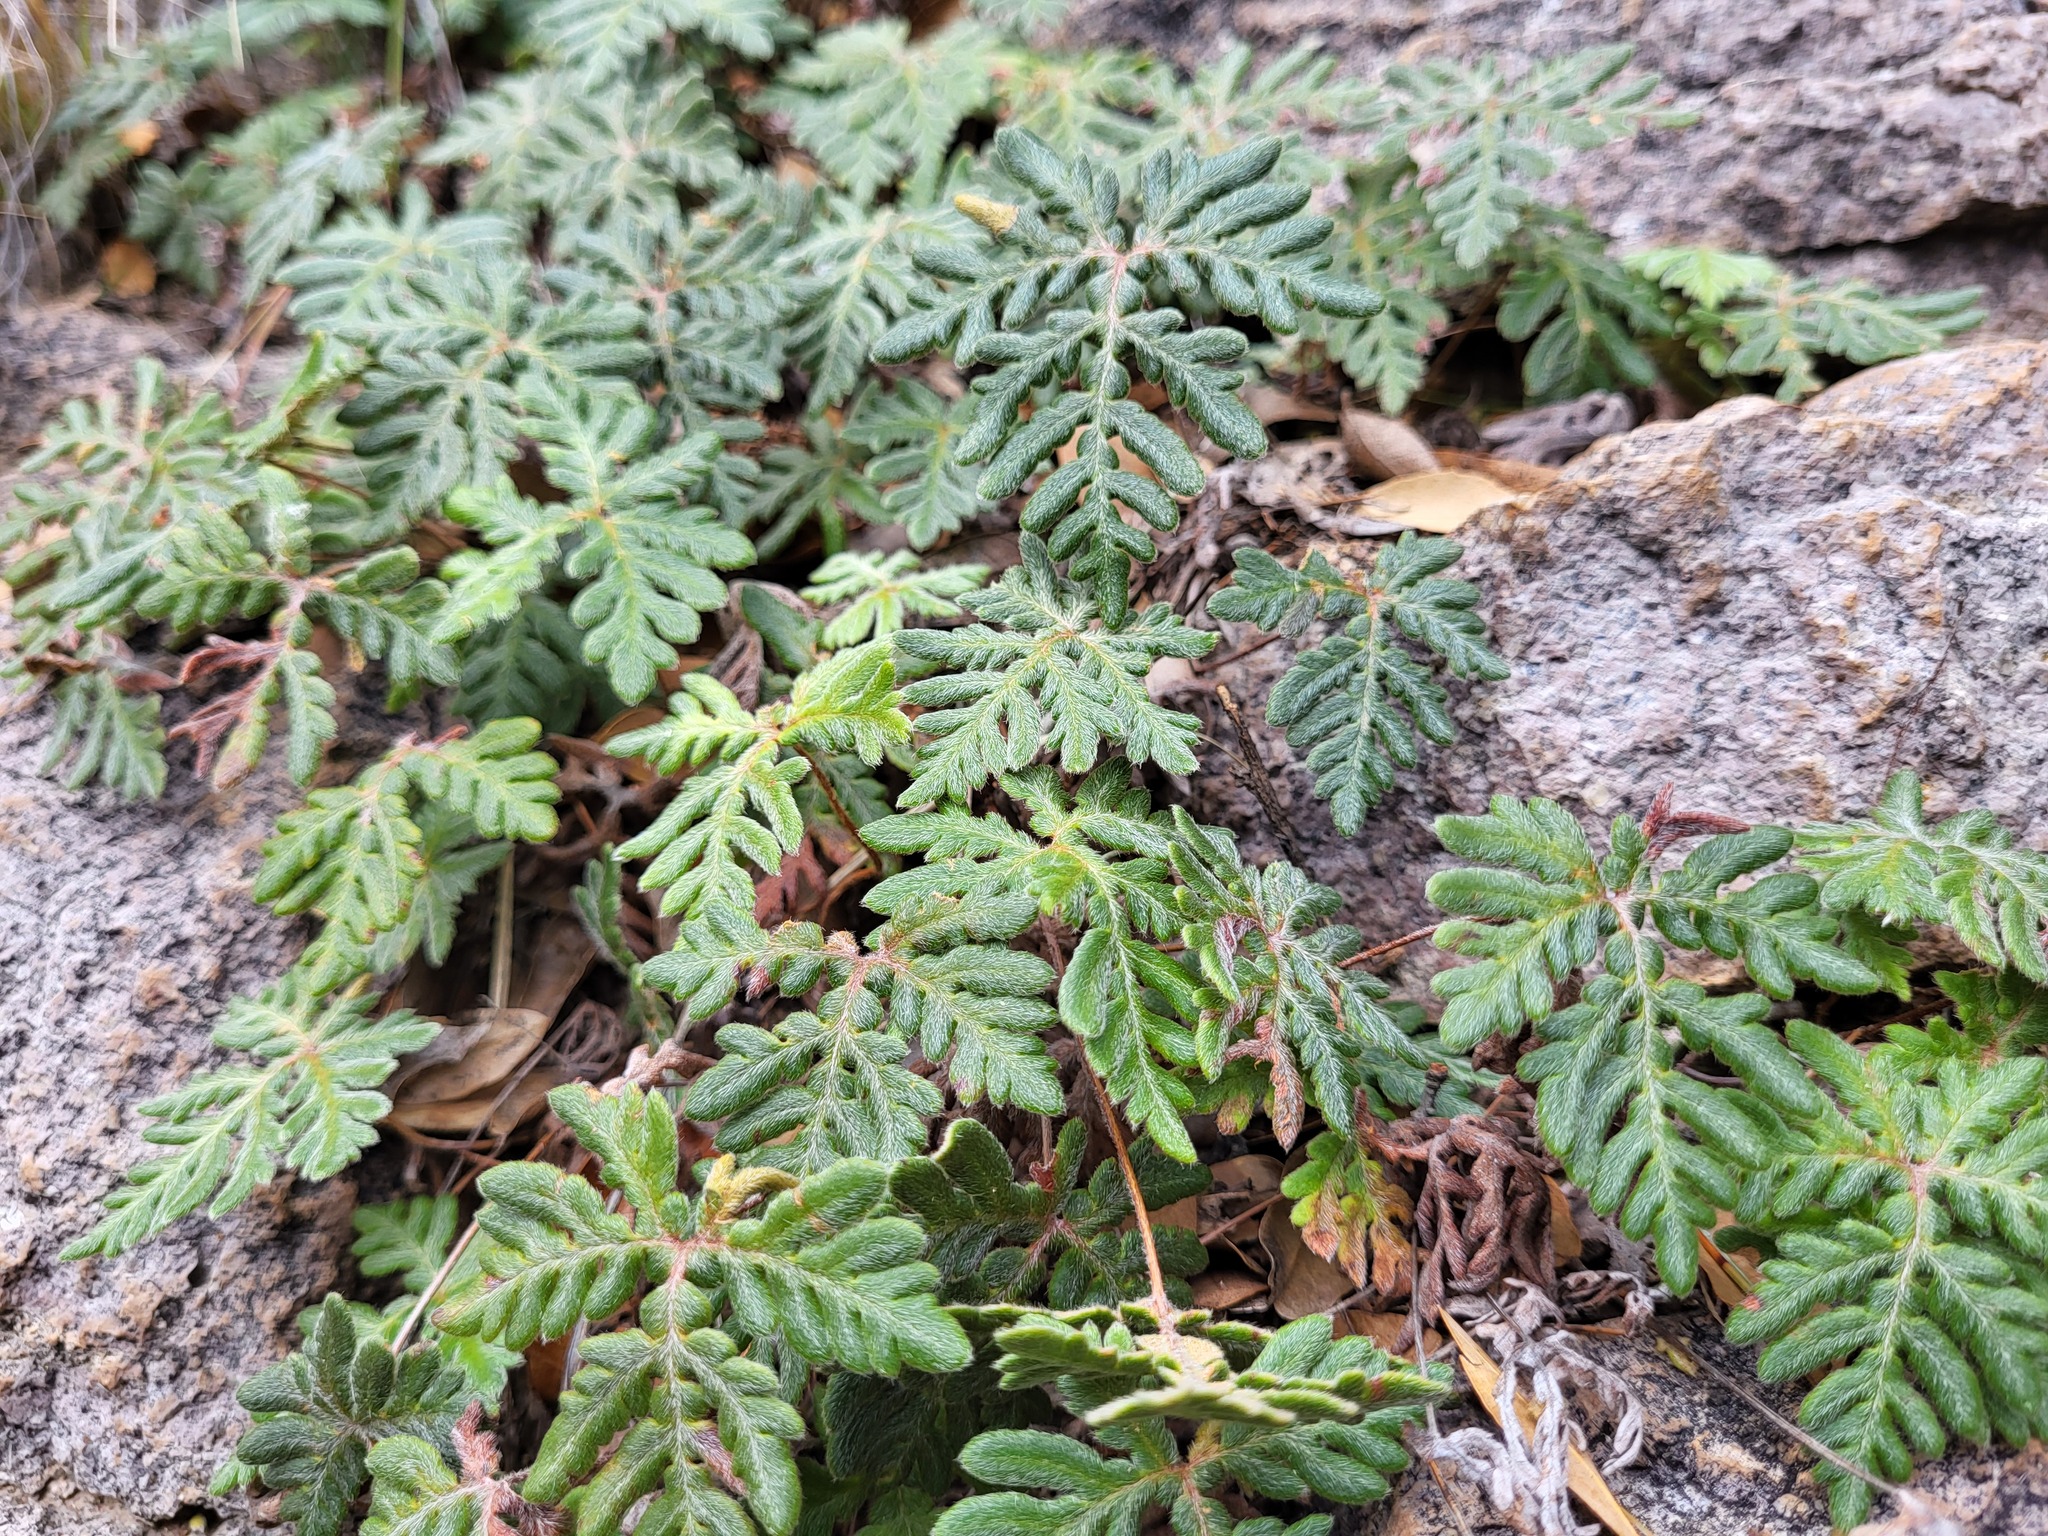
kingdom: Plantae
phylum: Tracheophyta
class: Polypodiopsida
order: Polypodiales
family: Pteridaceae
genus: Bommeria
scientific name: Bommeria hispida
